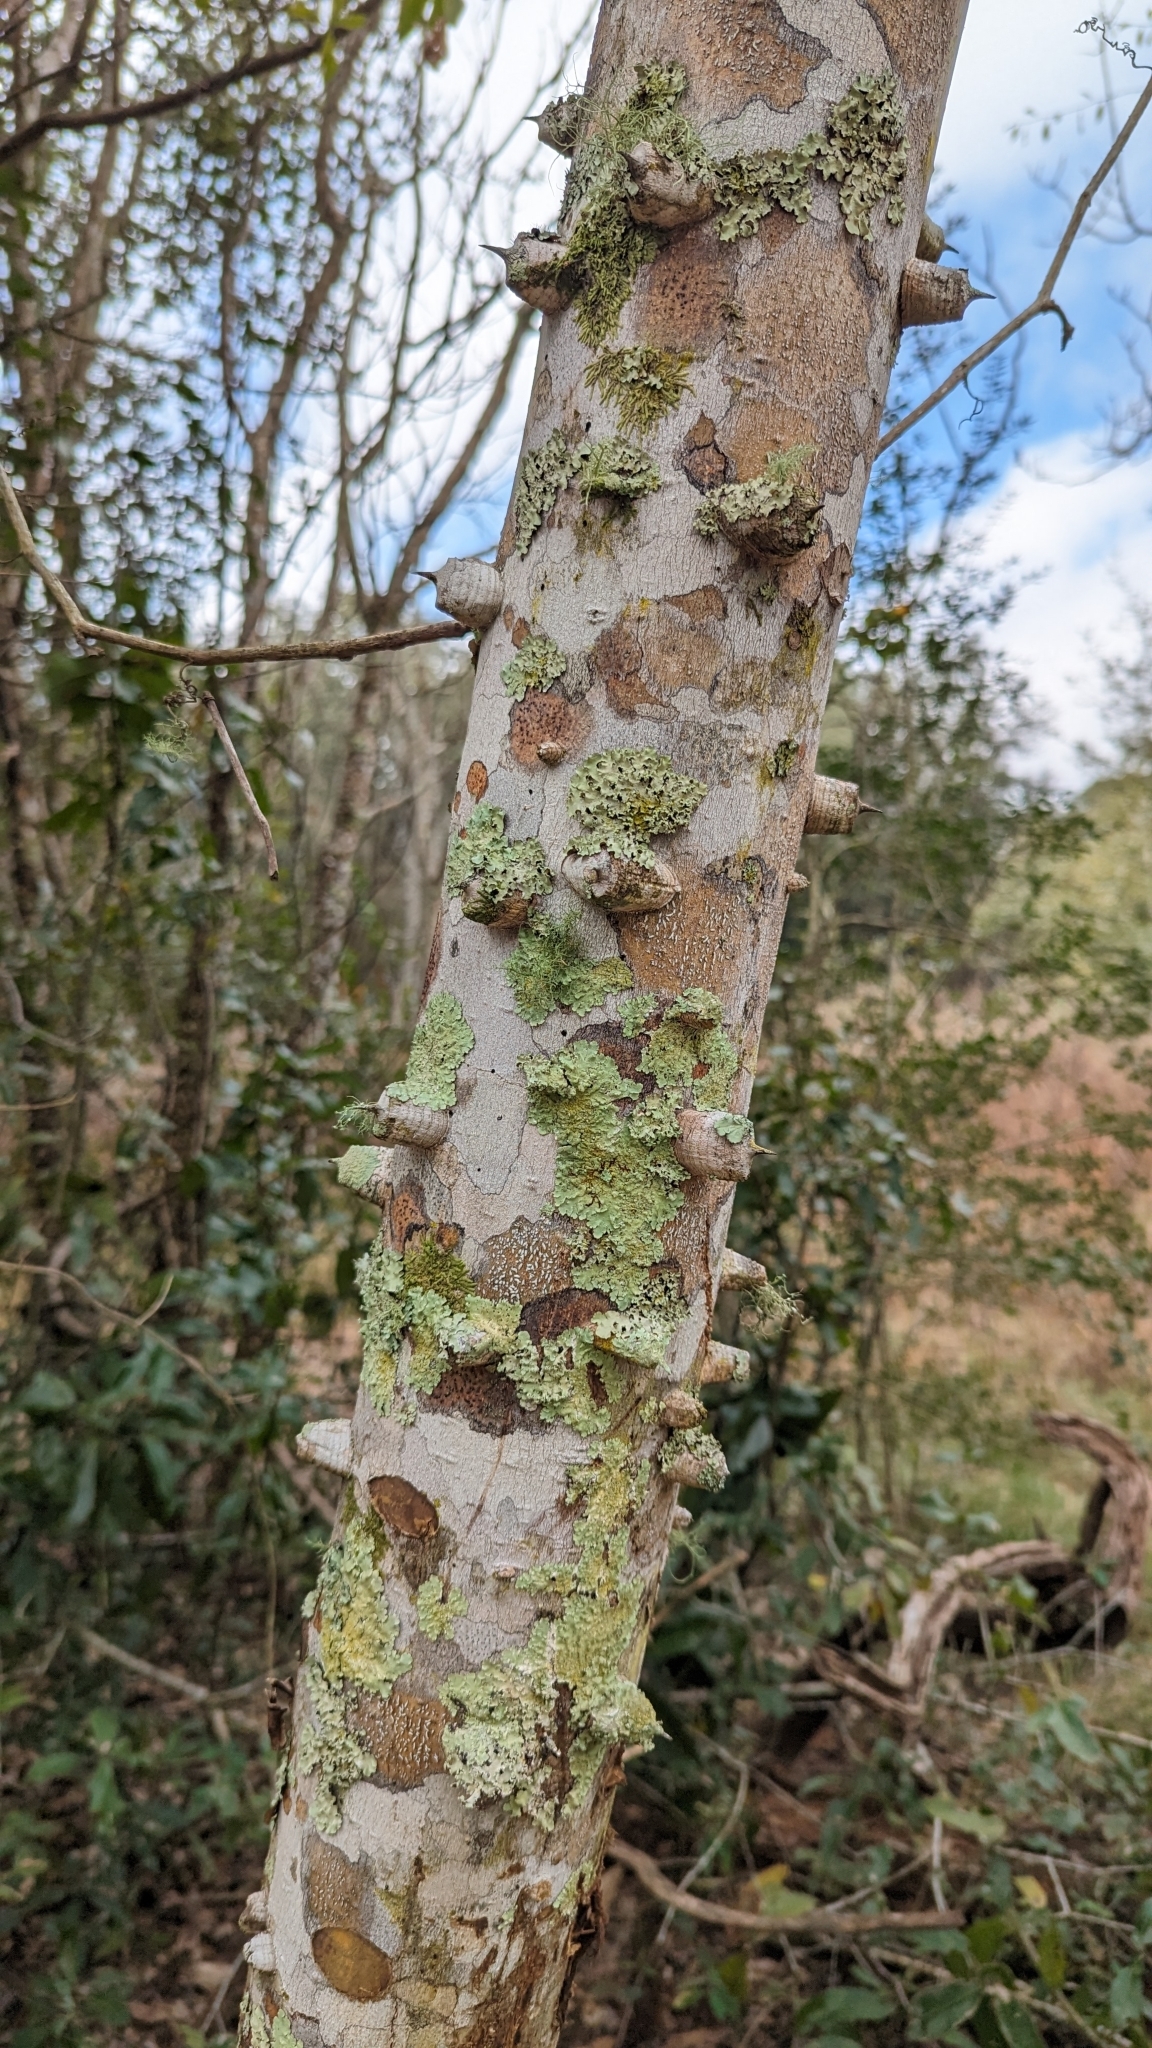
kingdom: Plantae
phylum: Tracheophyta
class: Magnoliopsida
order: Sapindales
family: Rutaceae
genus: Zanthoxylum
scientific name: Zanthoxylum clava-herculis
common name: Hercules'-club
